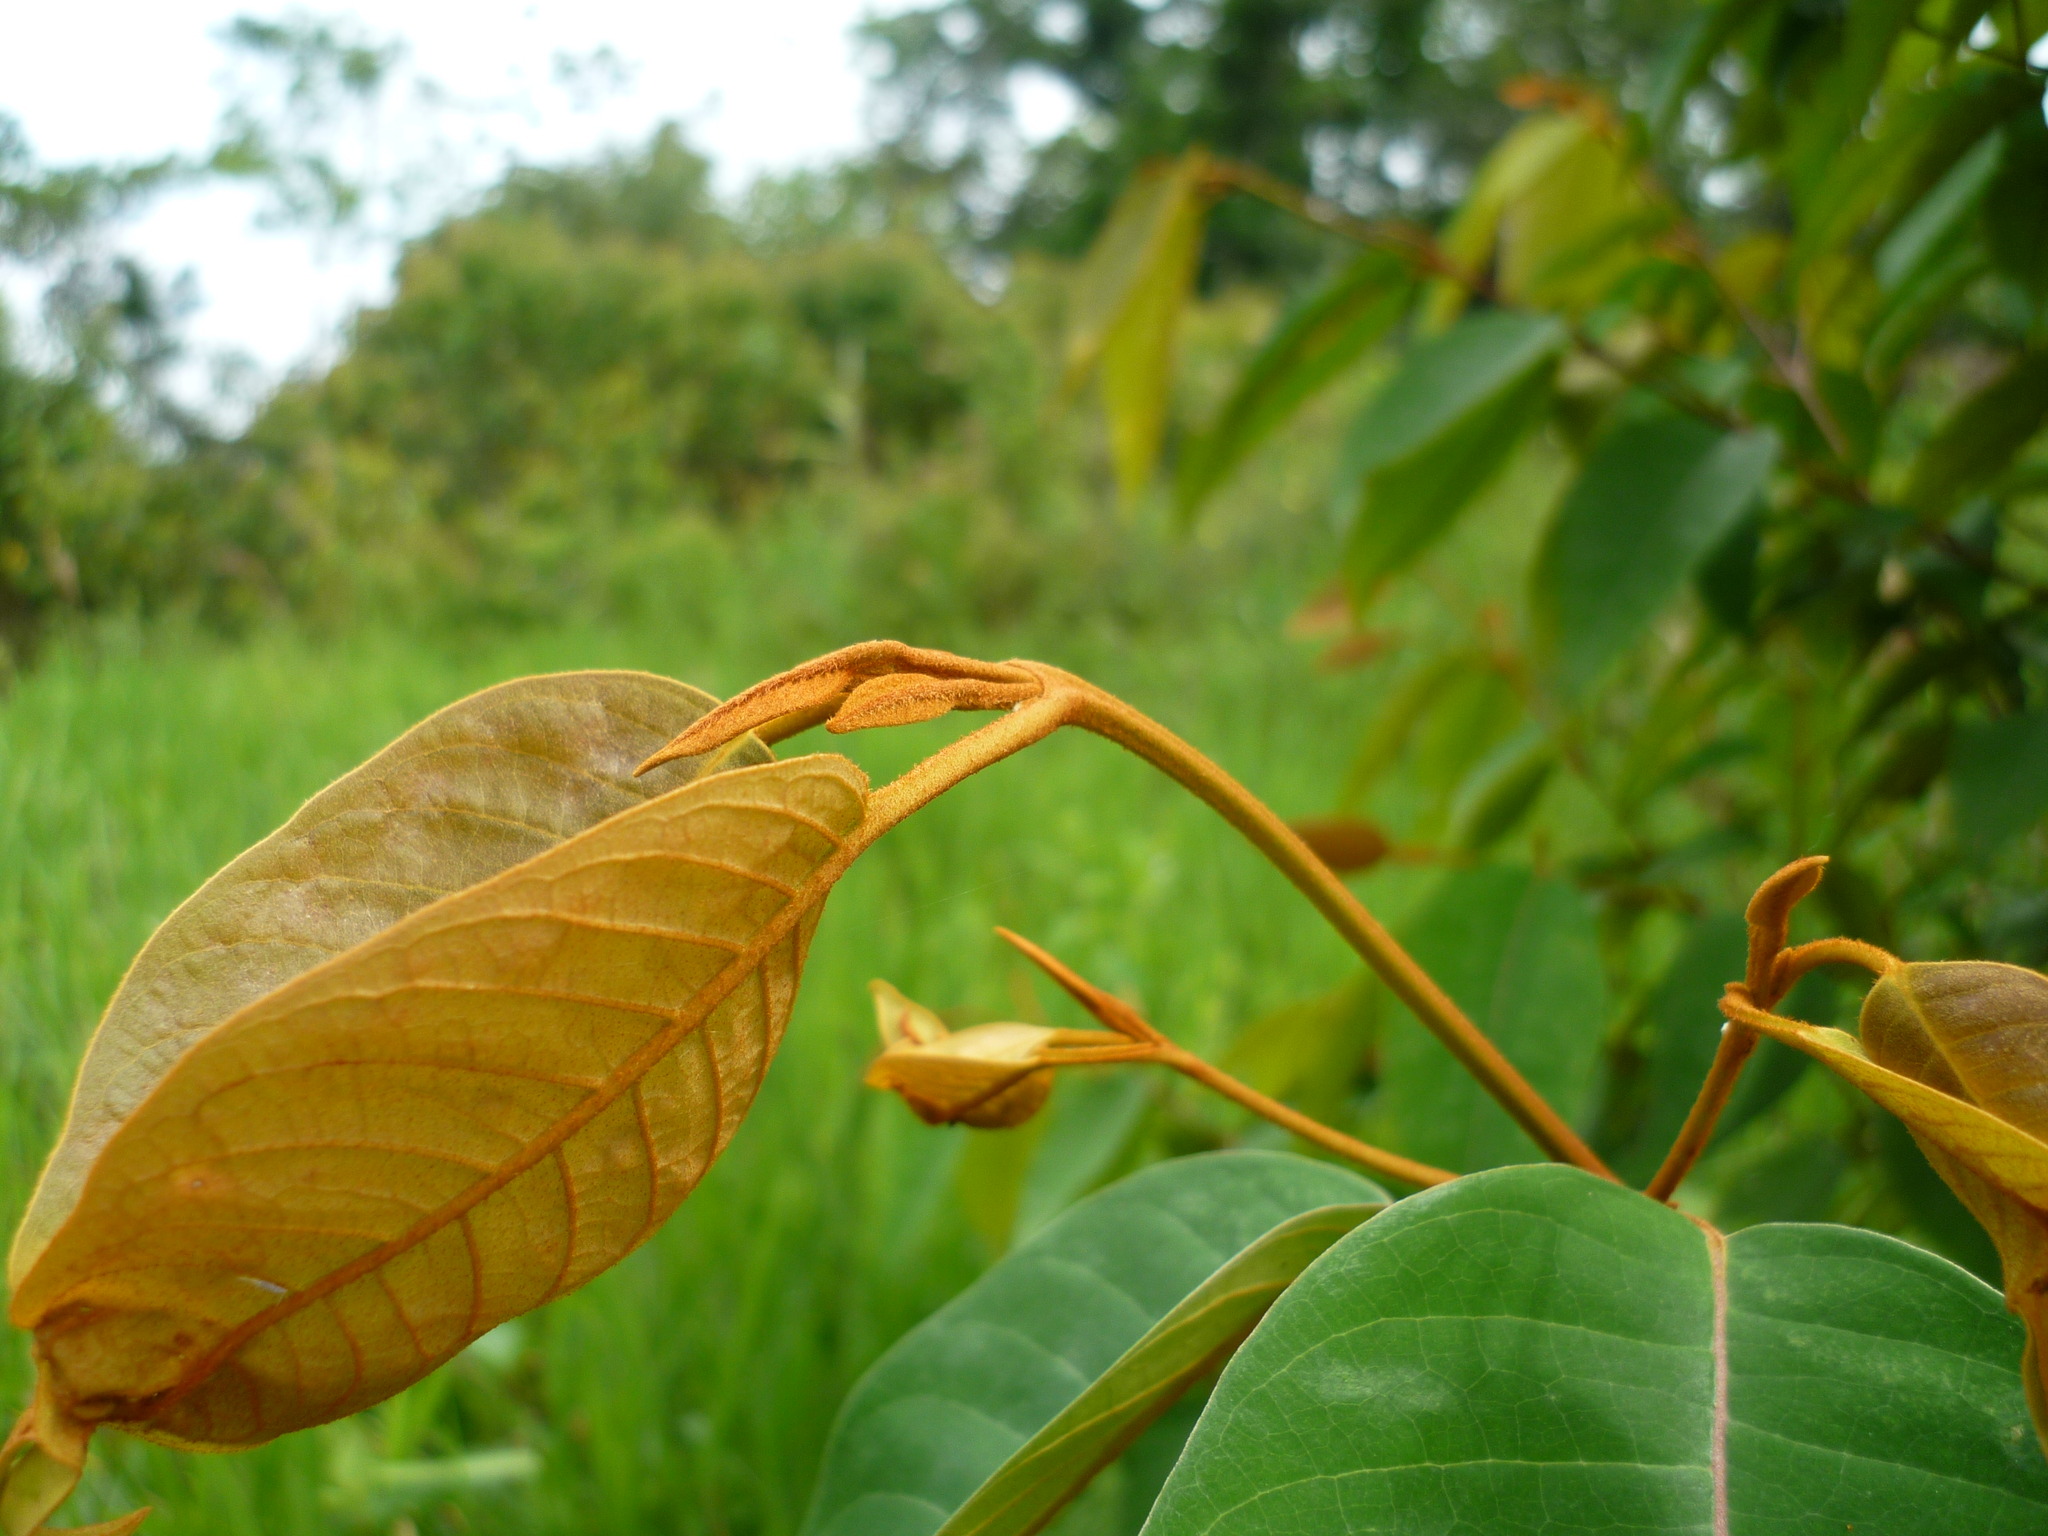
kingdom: Plantae
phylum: Tracheophyta
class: Magnoliopsida
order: Malpighiales
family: Hypericaceae
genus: Vismia
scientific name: Vismia baccifera
